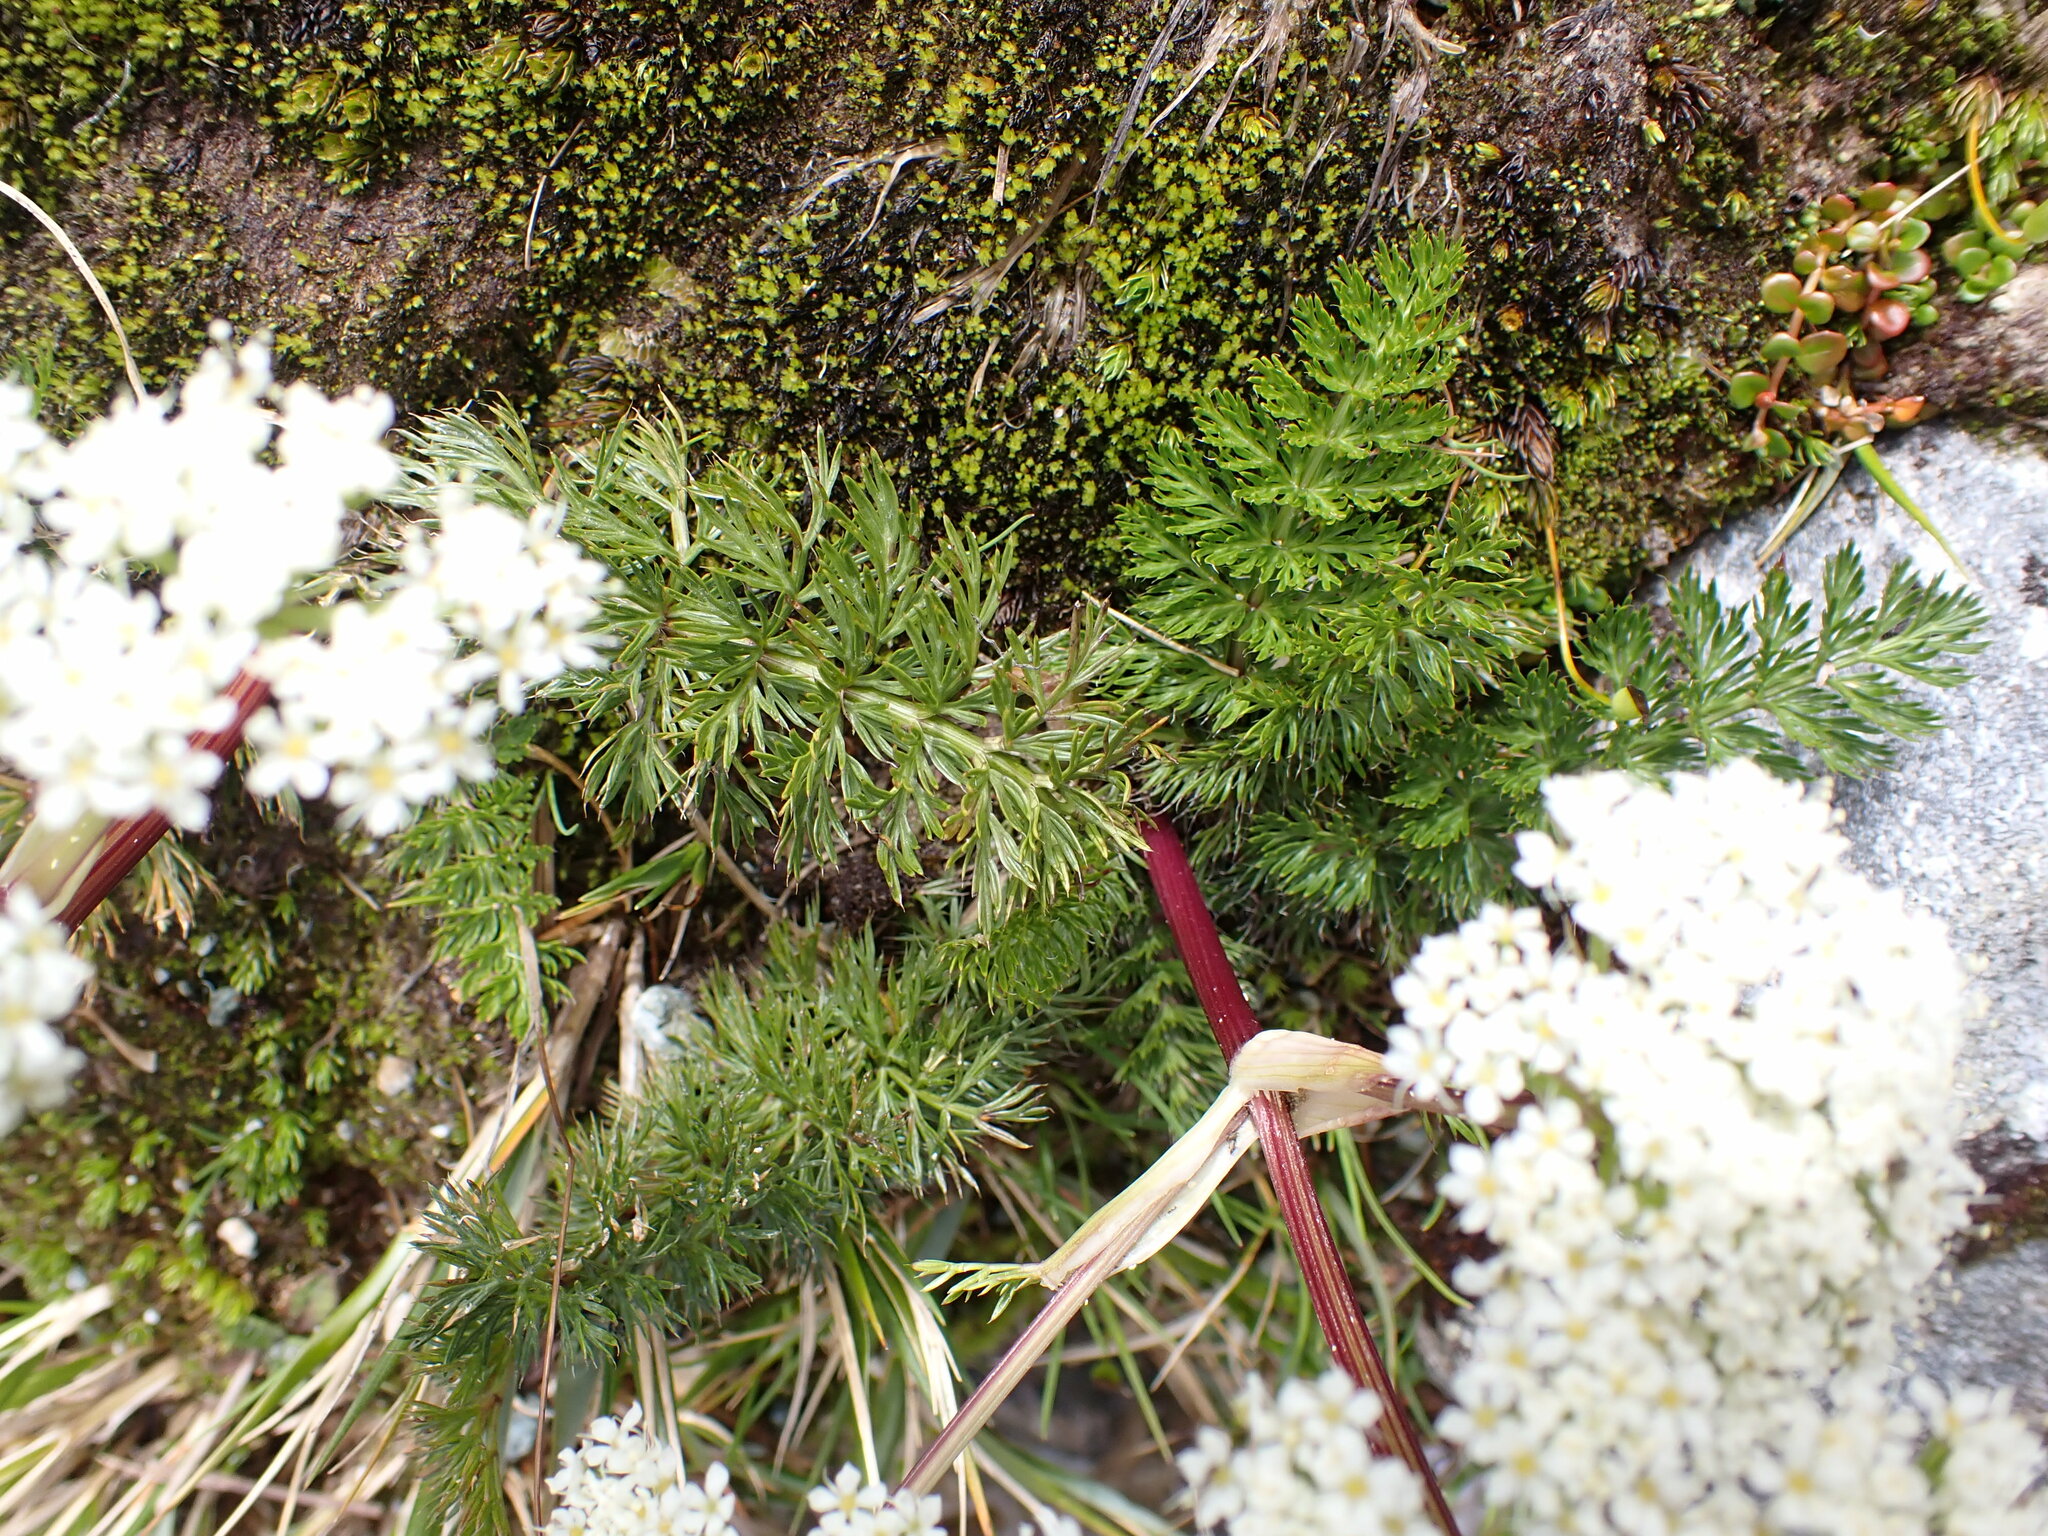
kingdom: Plantae
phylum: Tracheophyta
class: Magnoliopsida
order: Apiales
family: Apiaceae
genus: Anisotome
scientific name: Anisotome haastii
